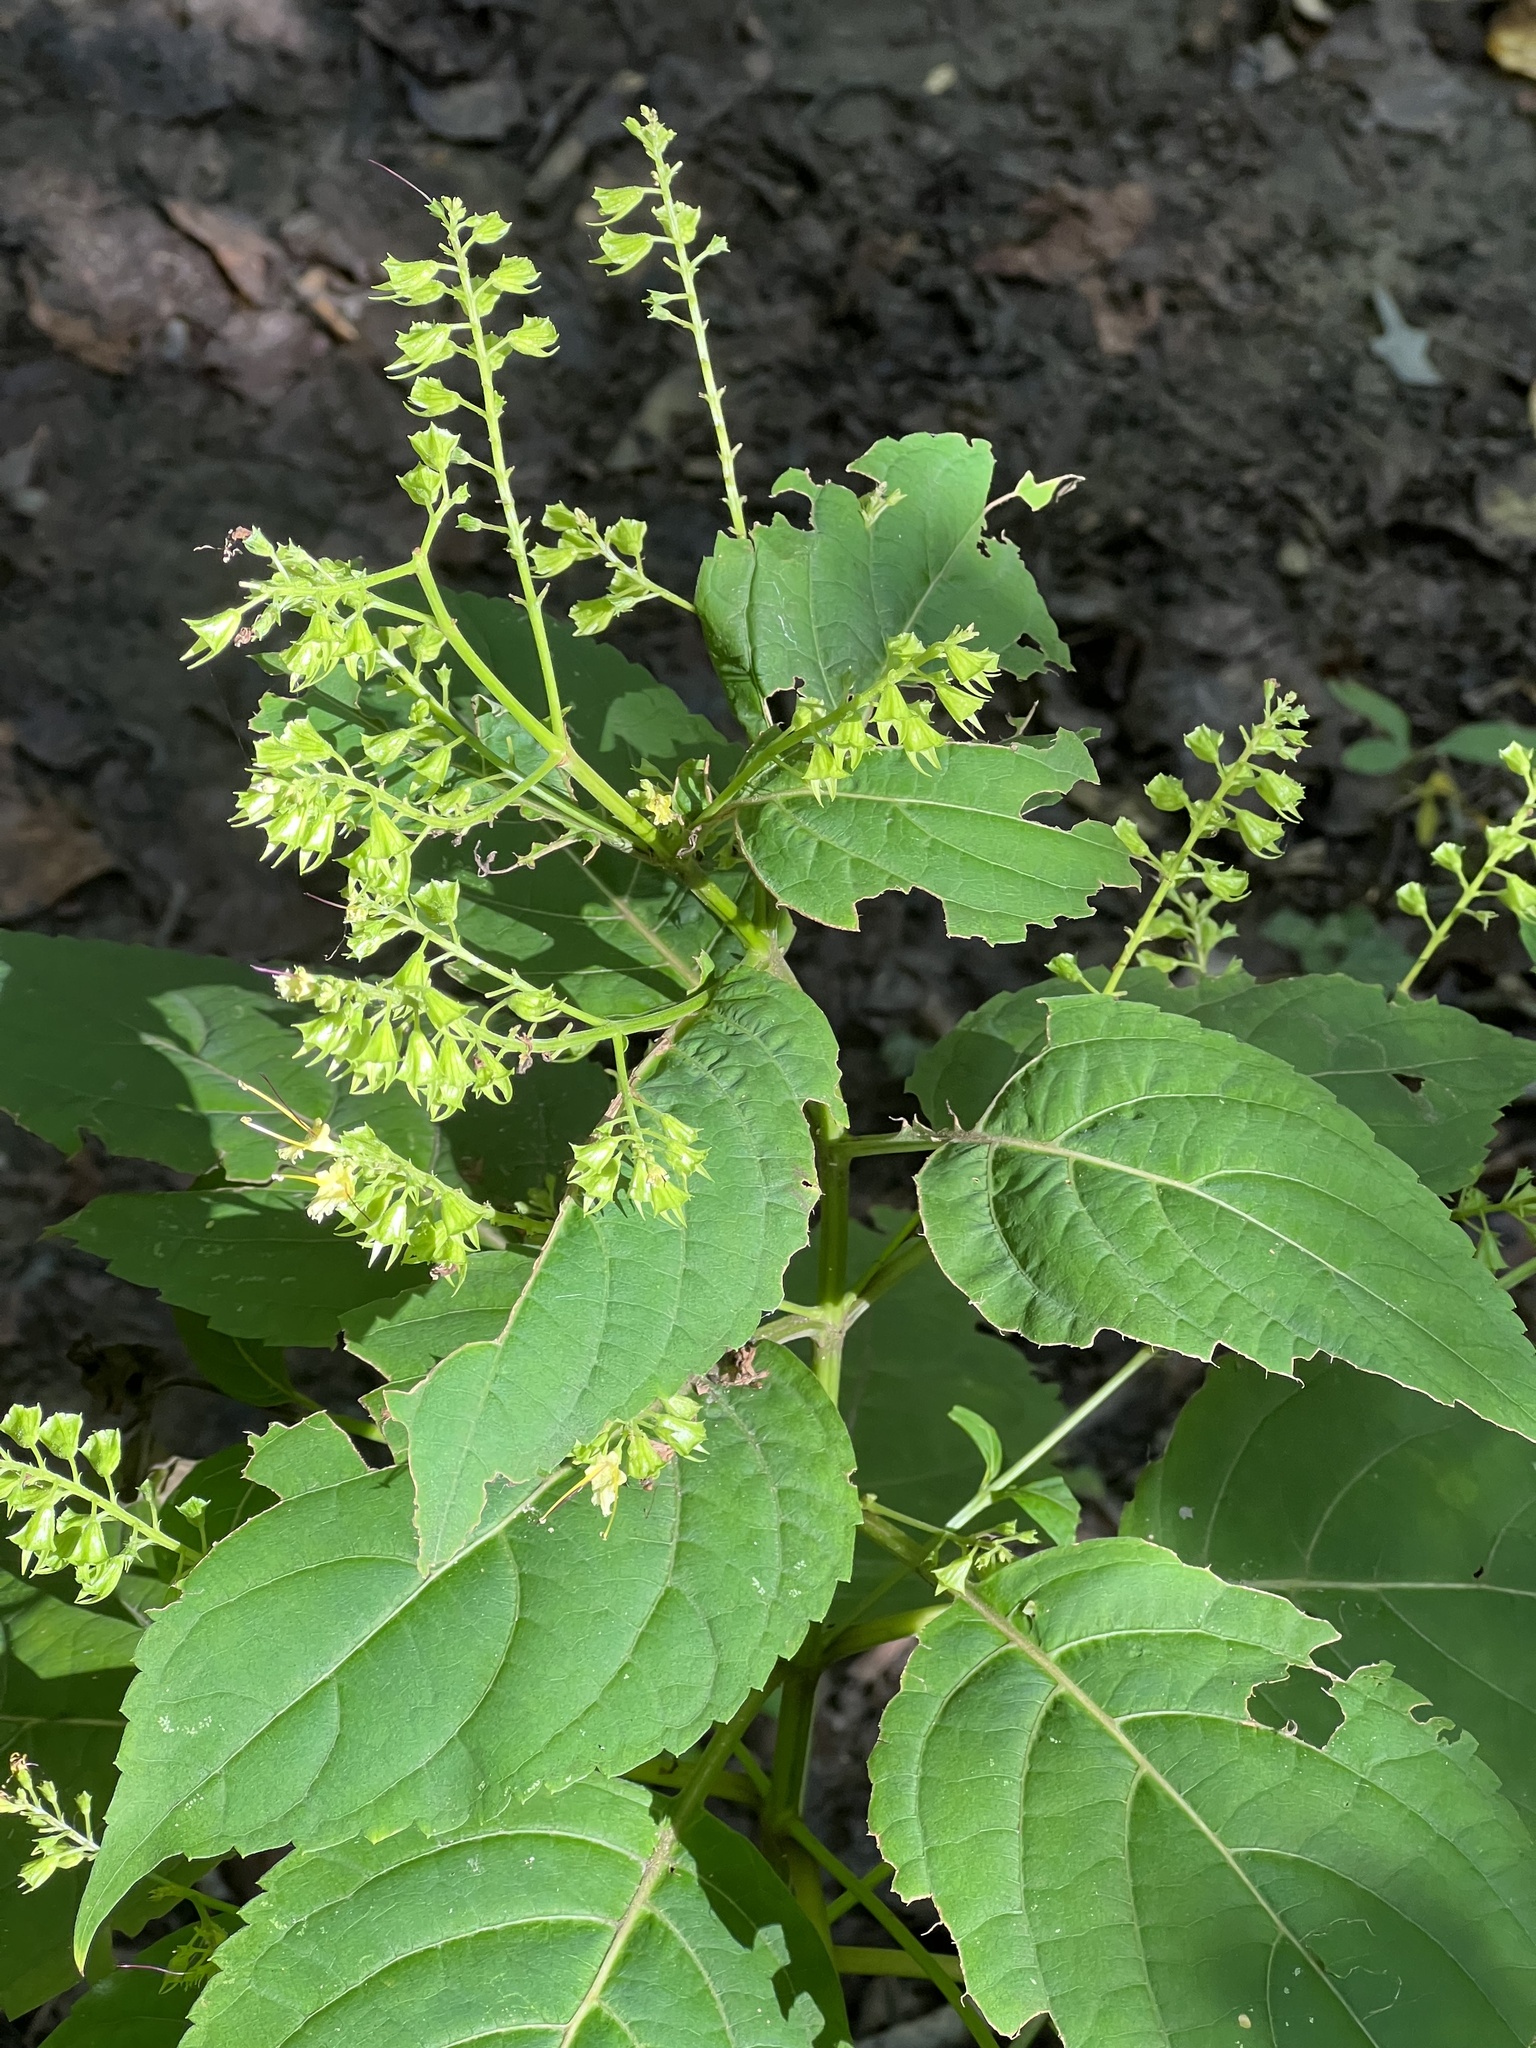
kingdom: Plantae
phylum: Tracheophyta
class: Magnoliopsida
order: Lamiales
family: Lamiaceae
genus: Collinsonia
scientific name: Collinsonia canadensis
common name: Northern horsebalm
